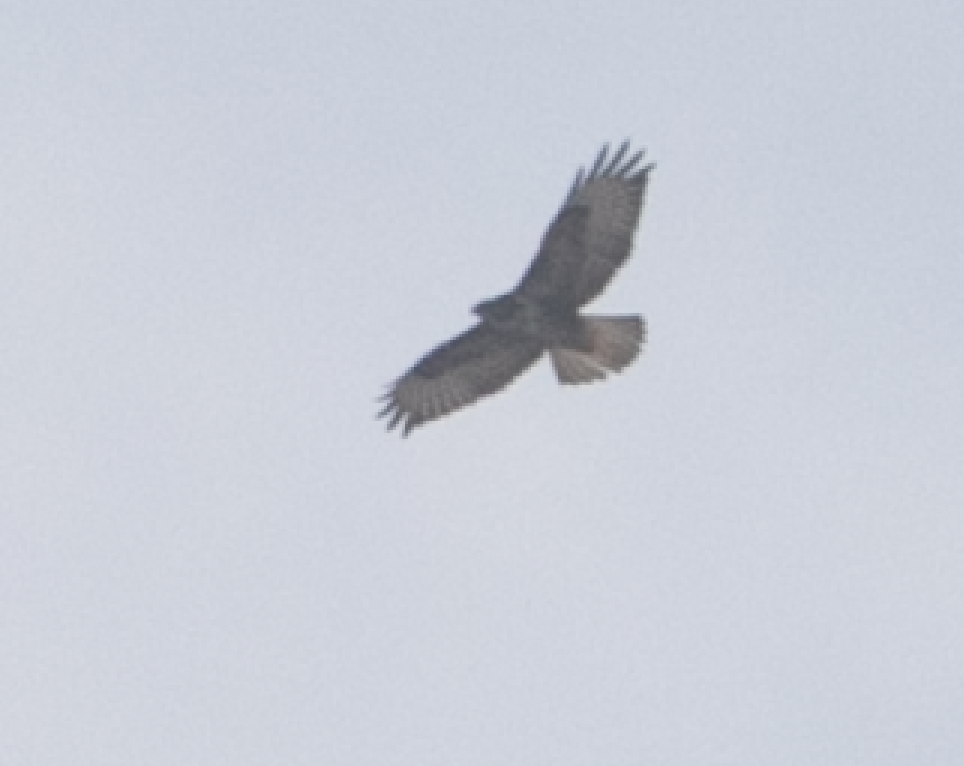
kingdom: Animalia
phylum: Chordata
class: Aves
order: Accipitriformes
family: Accipitridae
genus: Buteo
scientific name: Buteo buteo
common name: Common buzzard
